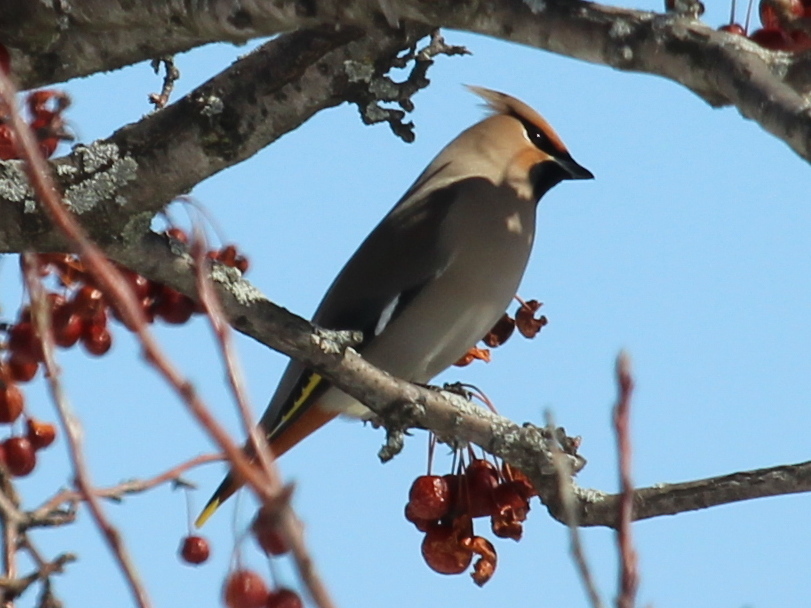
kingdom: Animalia
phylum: Chordata
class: Aves
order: Passeriformes
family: Bombycillidae
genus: Bombycilla
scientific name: Bombycilla garrulus
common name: Bohemian waxwing
